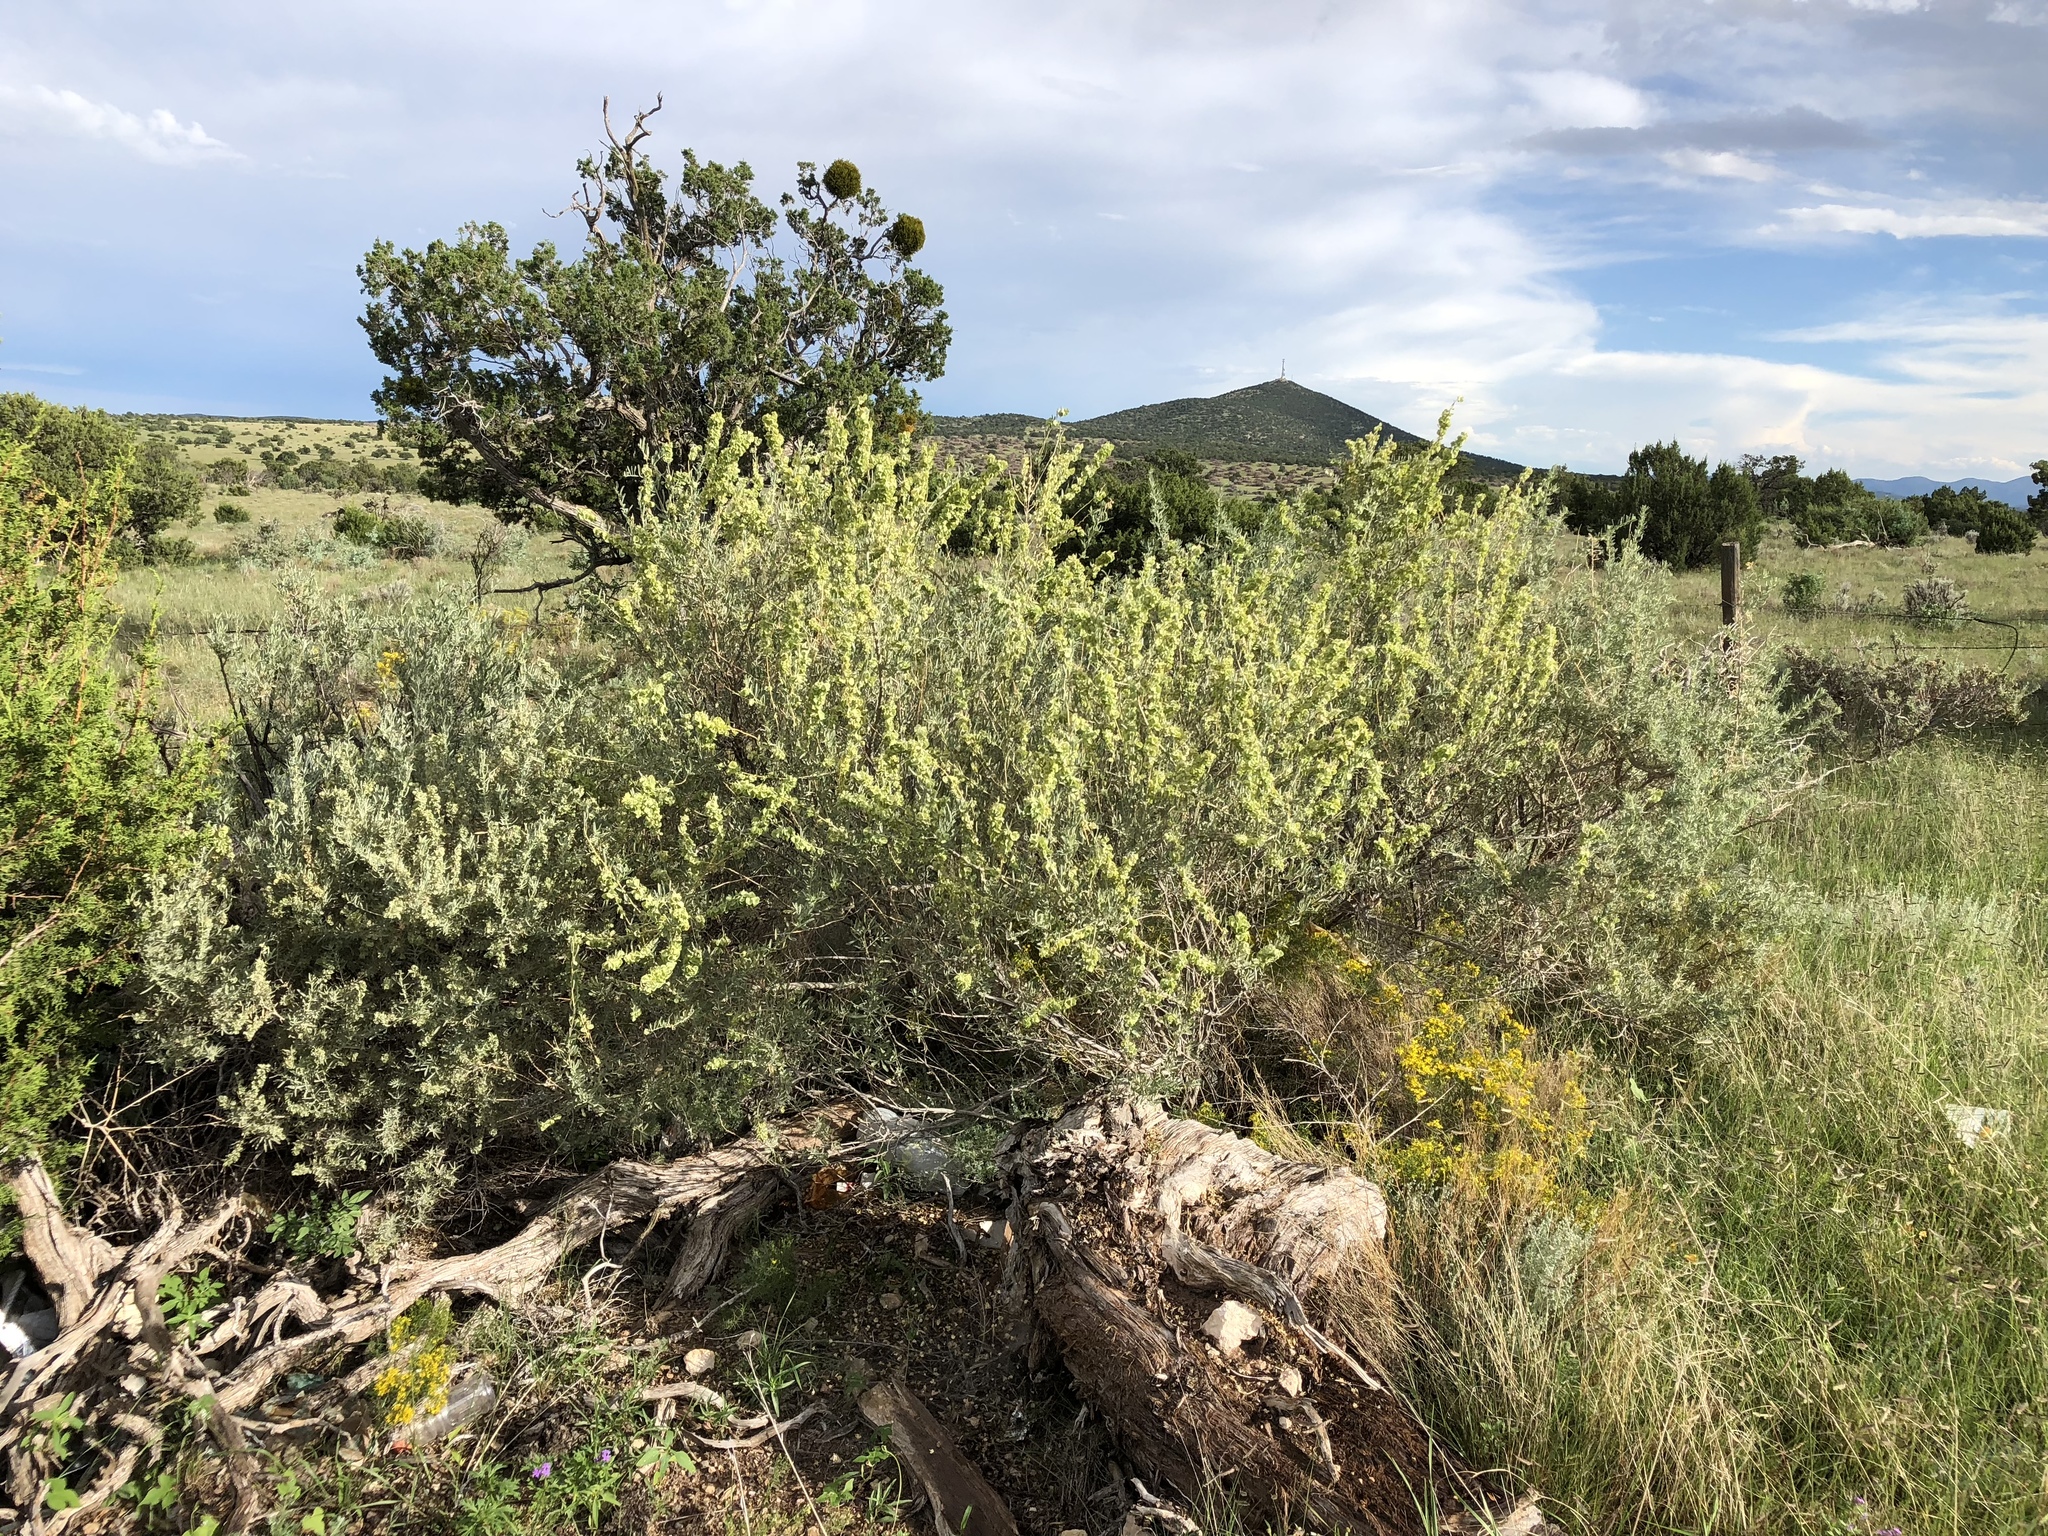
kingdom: Plantae
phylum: Tracheophyta
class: Magnoliopsida
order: Caryophyllales
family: Amaranthaceae
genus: Atriplex
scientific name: Atriplex canescens
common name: Four-wing saltbush
